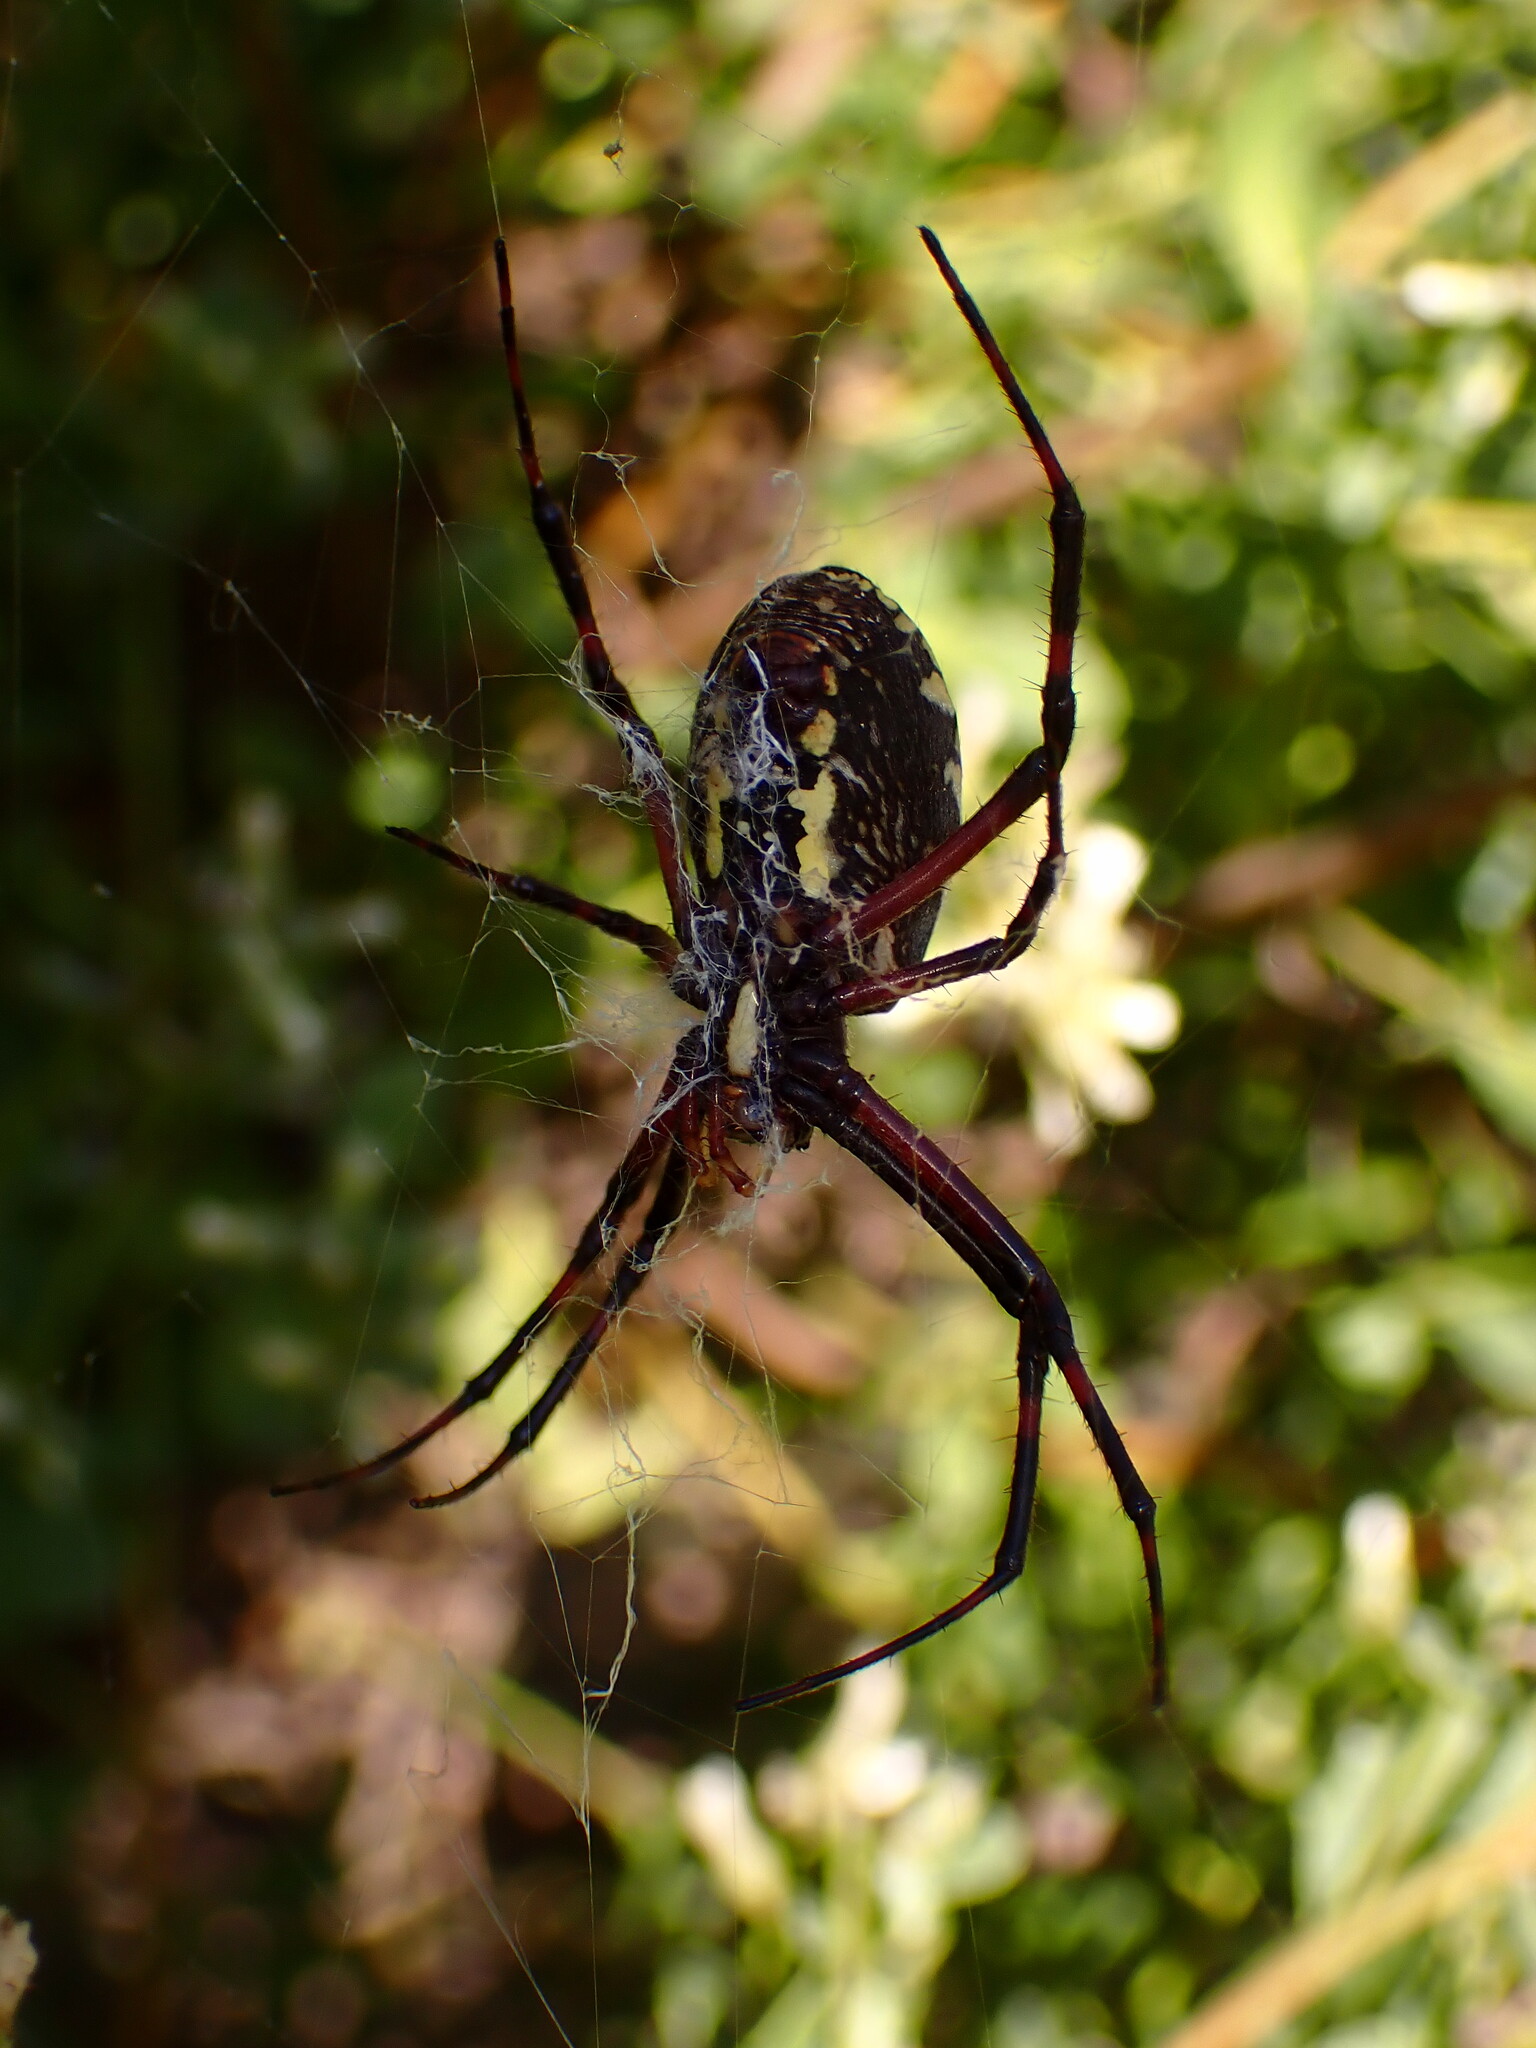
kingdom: Animalia
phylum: Arthropoda
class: Arachnida
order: Araneae
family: Araneidae
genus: Argiope
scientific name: Argiope aurantia
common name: Orb weavers
